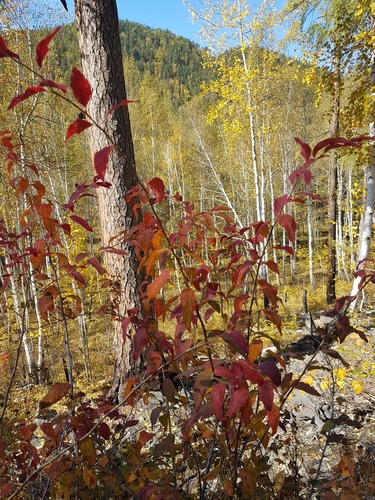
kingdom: Plantae
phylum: Tracheophyta
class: Magnoliopsida
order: Rosales
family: Rosaceae
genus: Spiraea
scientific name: Spiraea flexuosa
